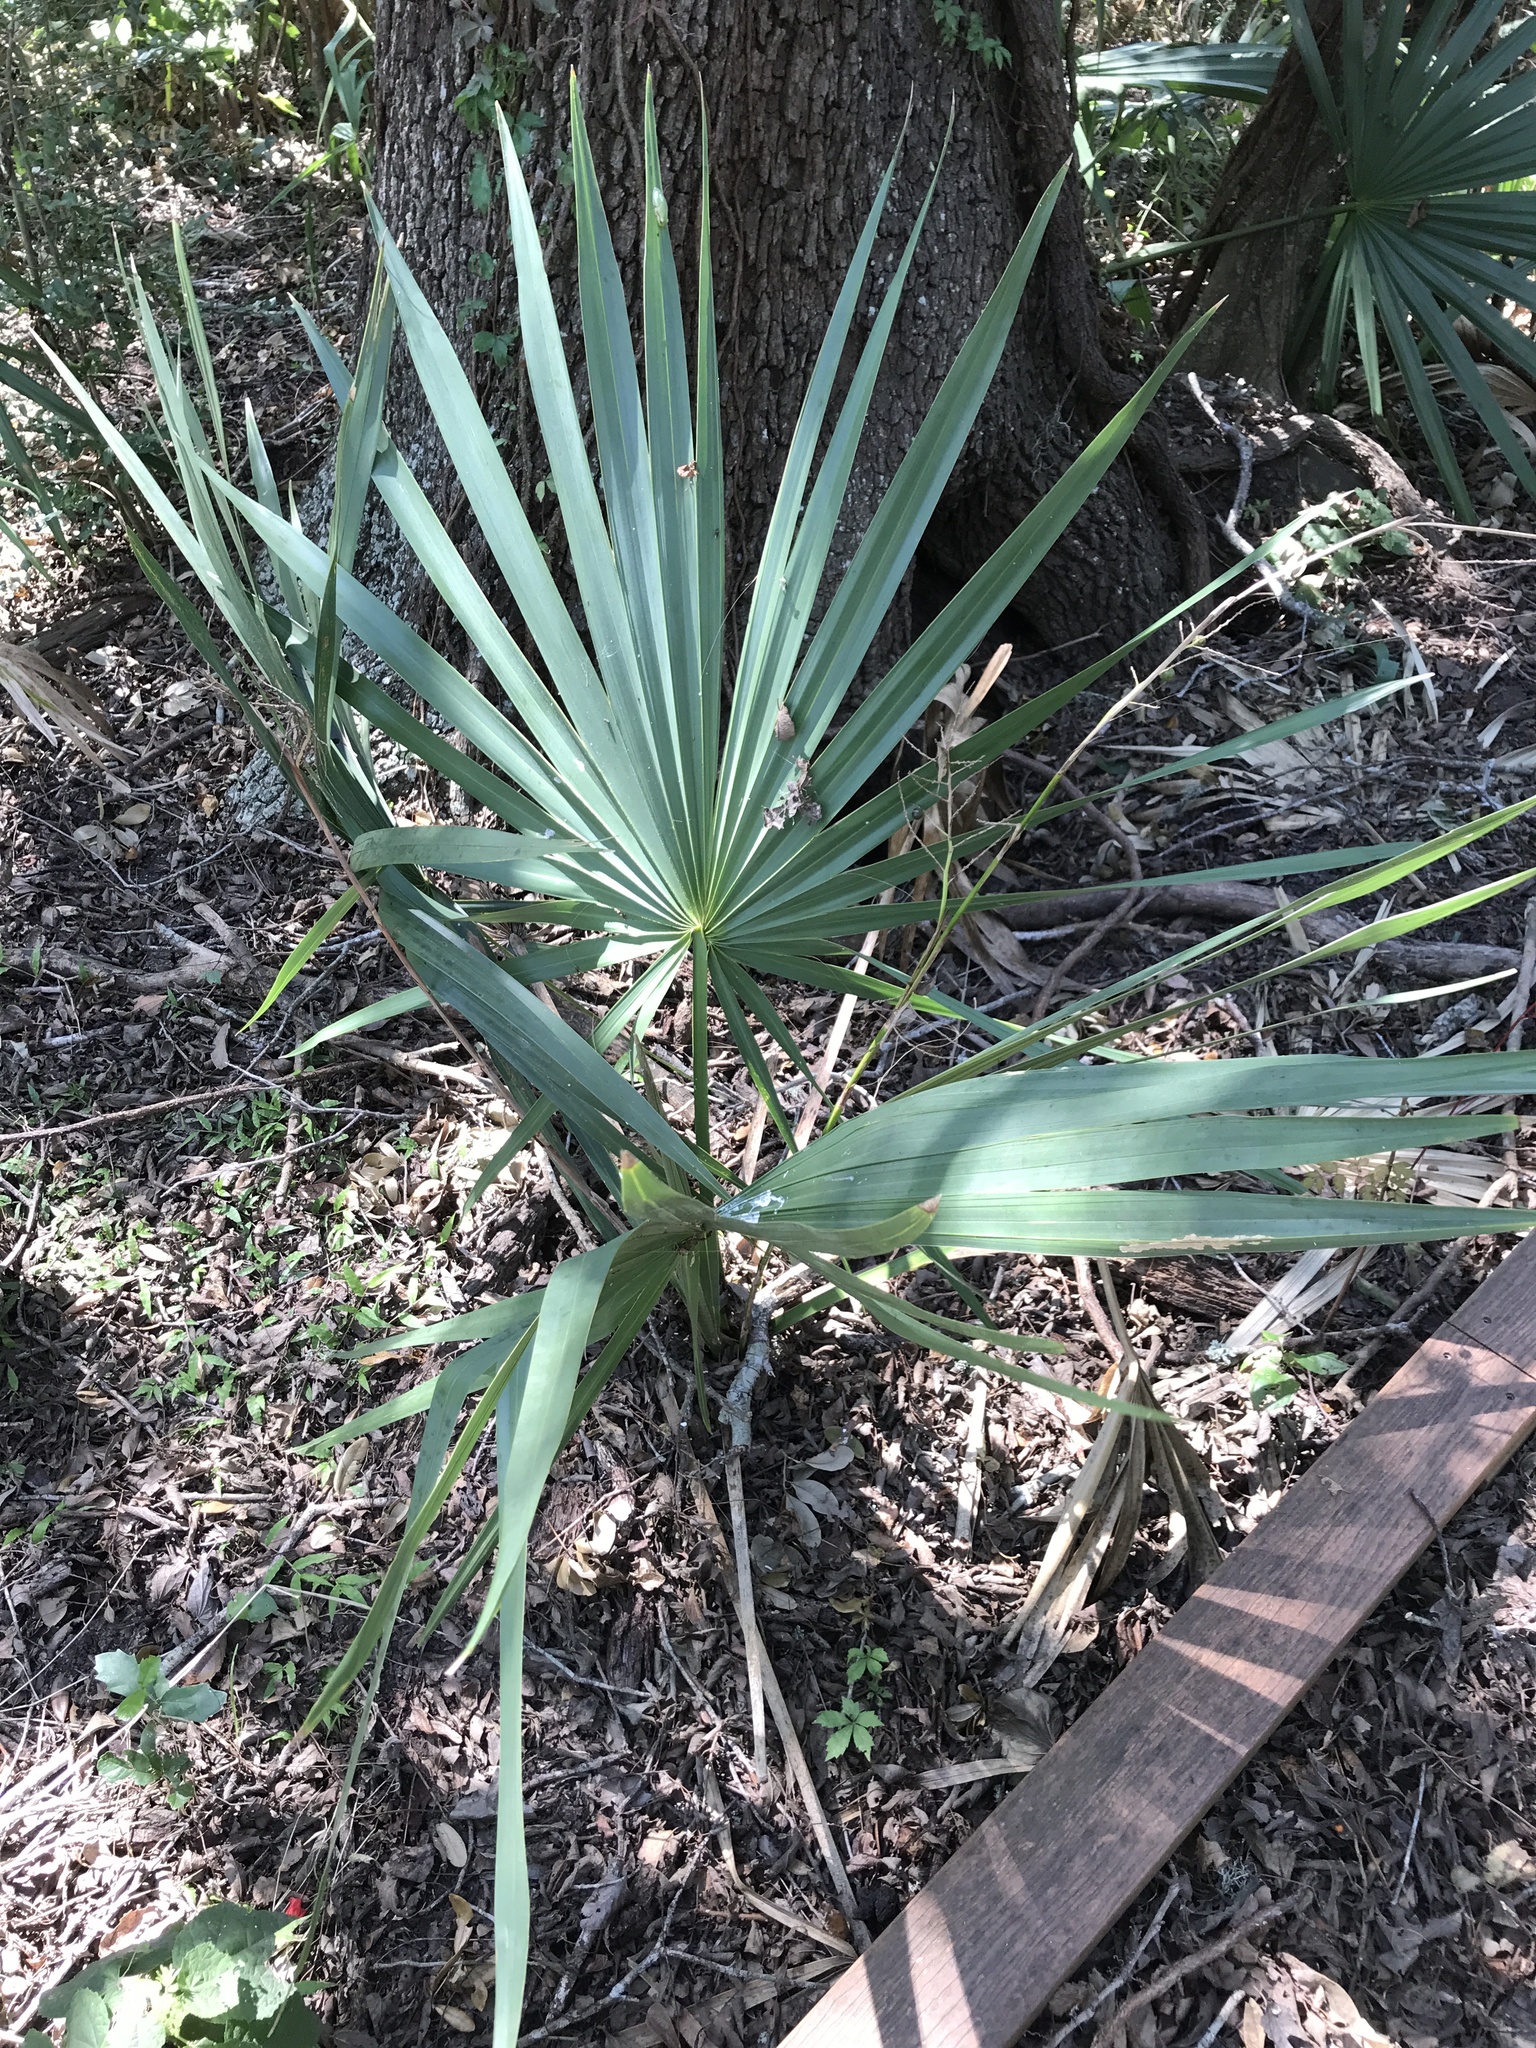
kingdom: Plantae
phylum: Tracheophyta
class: Liliopsida
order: Arecales
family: Arecaceae
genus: Sabal
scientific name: Sabal minor
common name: Dwarf palmetto
